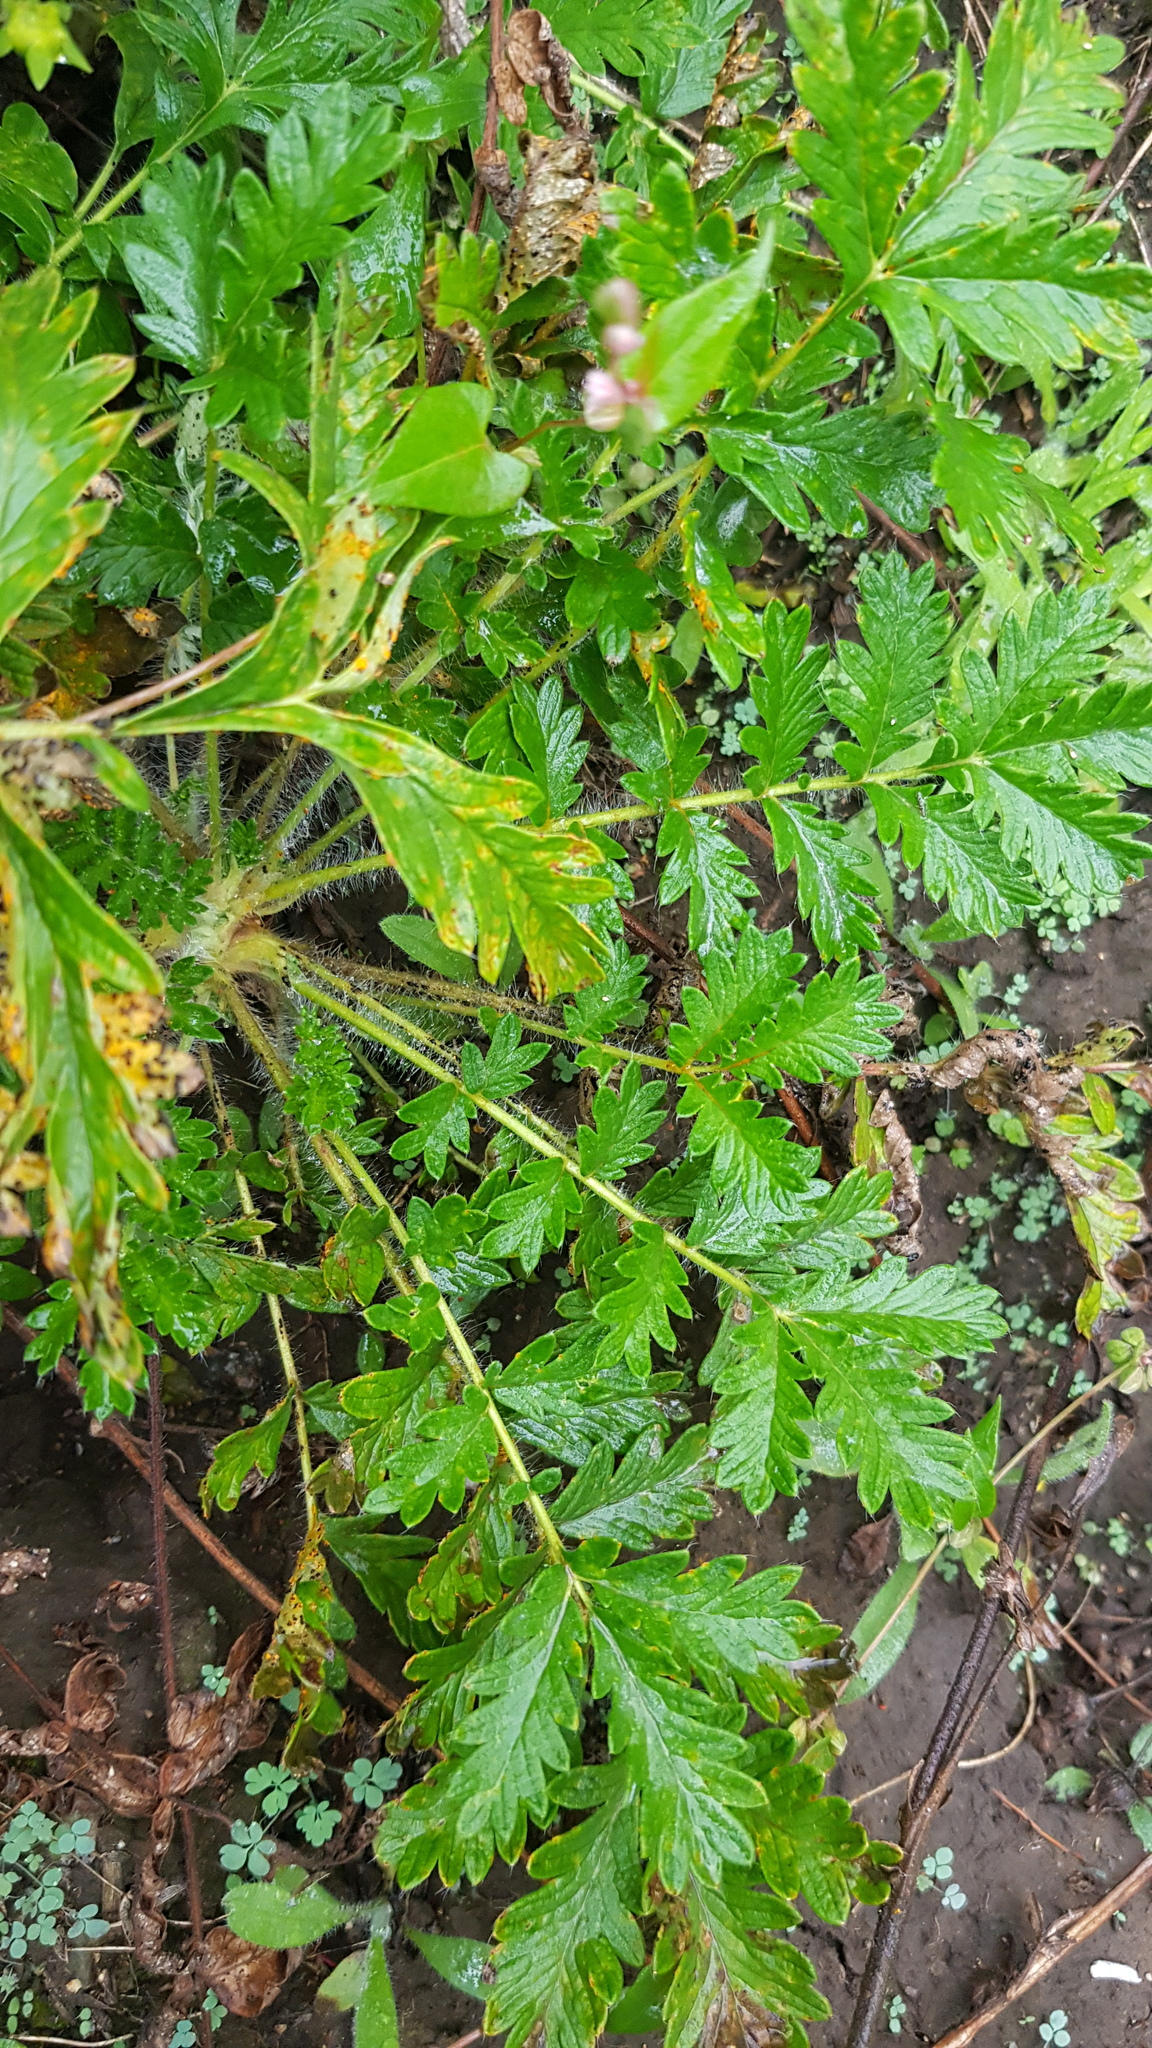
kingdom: Plantae
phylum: Tracheophyta
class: Magnoliopsida
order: Rosales
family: Rosaceae
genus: Potentilla
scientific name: Potentilla longifolia
